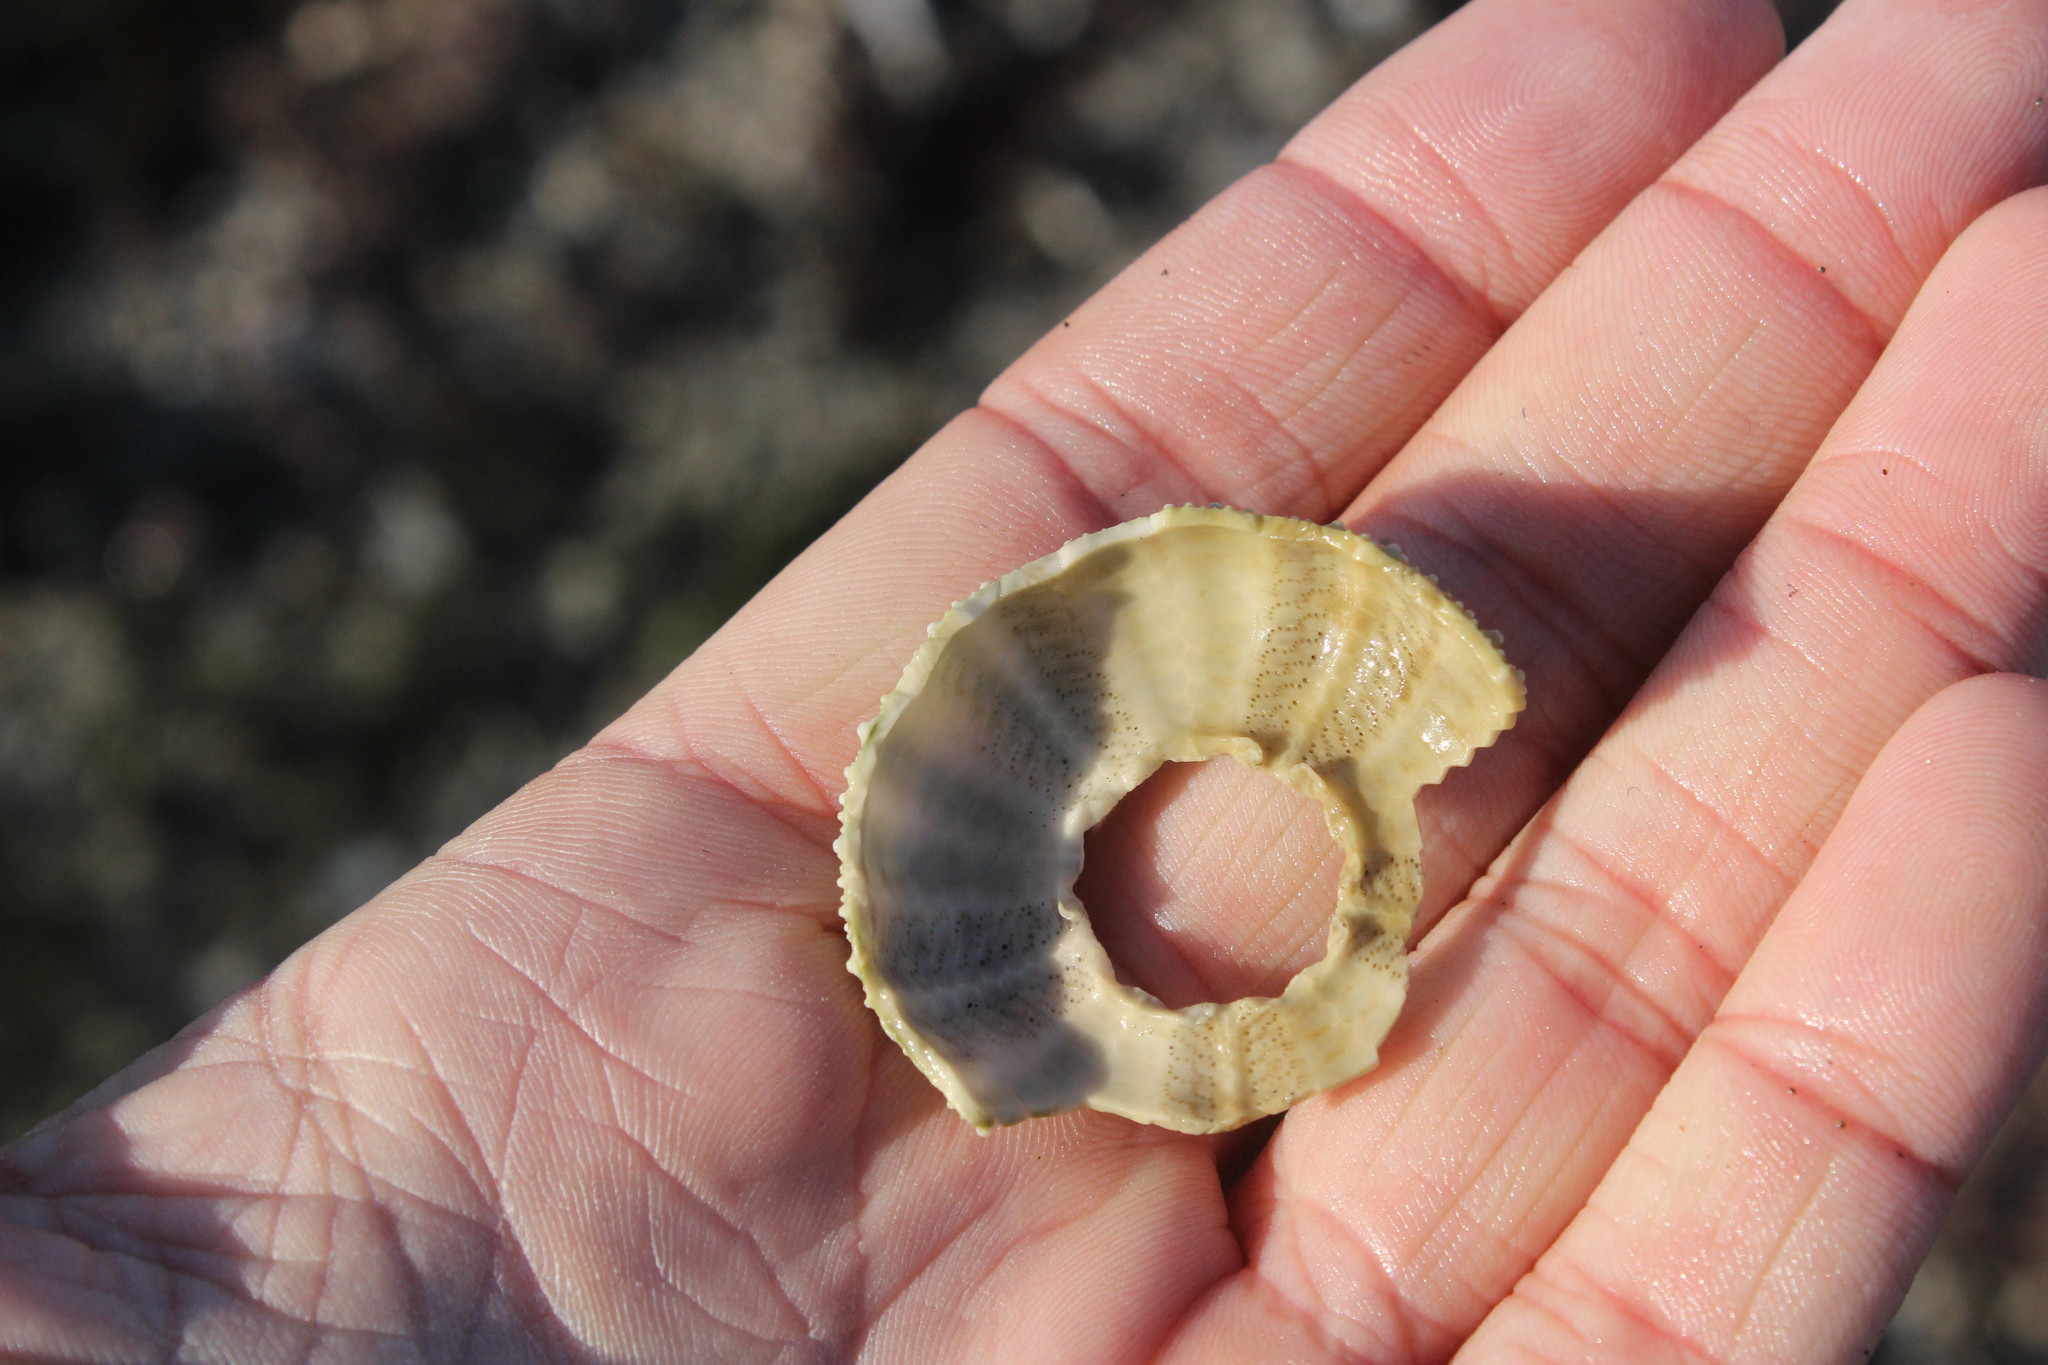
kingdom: Animalia
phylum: Echinodermata
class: Echinoidea
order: Camarodonta
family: Strongylocentrotidae
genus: Strongylocentrotus
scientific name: Strongylocentrotus purpuratus
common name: Purple sea urchin
